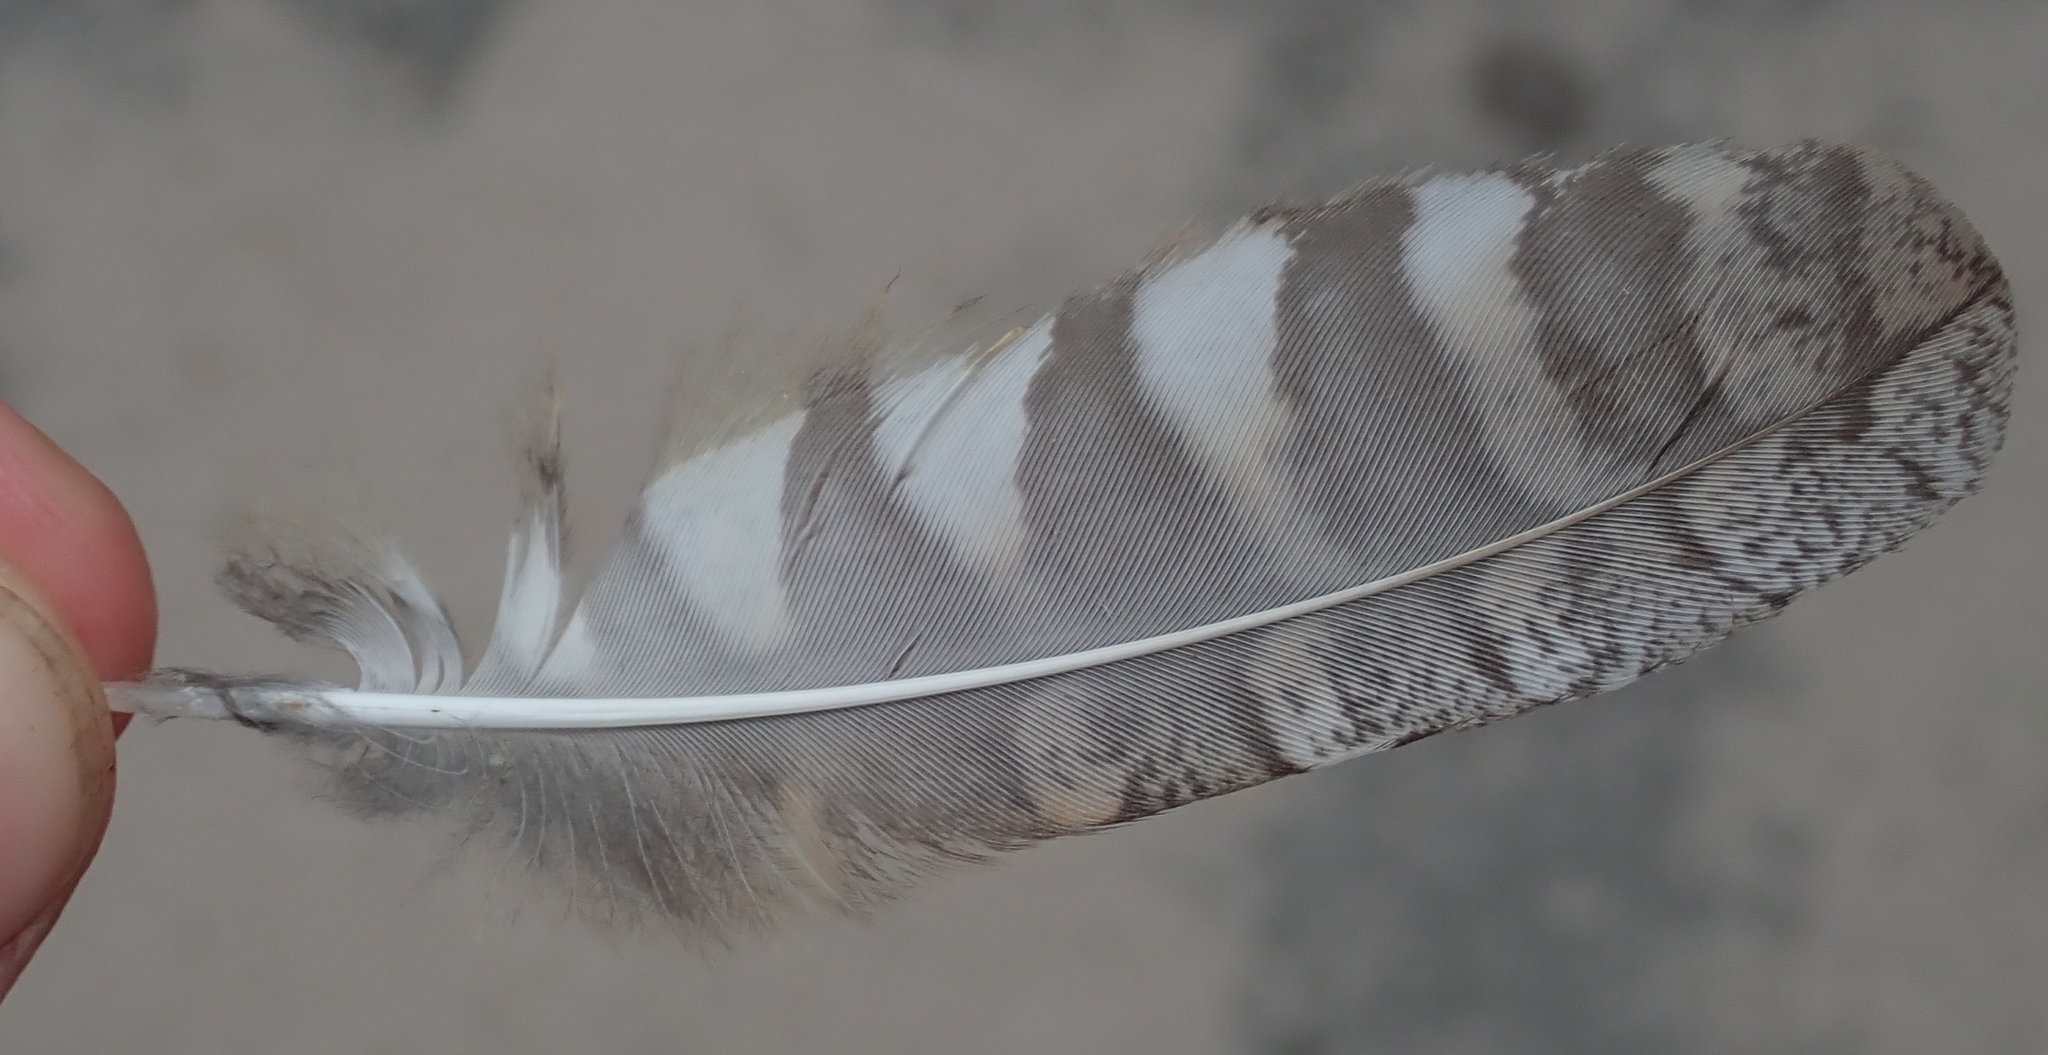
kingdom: Animalia
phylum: Chordata
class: Aves
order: Strigiformes
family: Strigidae
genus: Otus
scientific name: Otus senegalensis
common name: African scops owl
